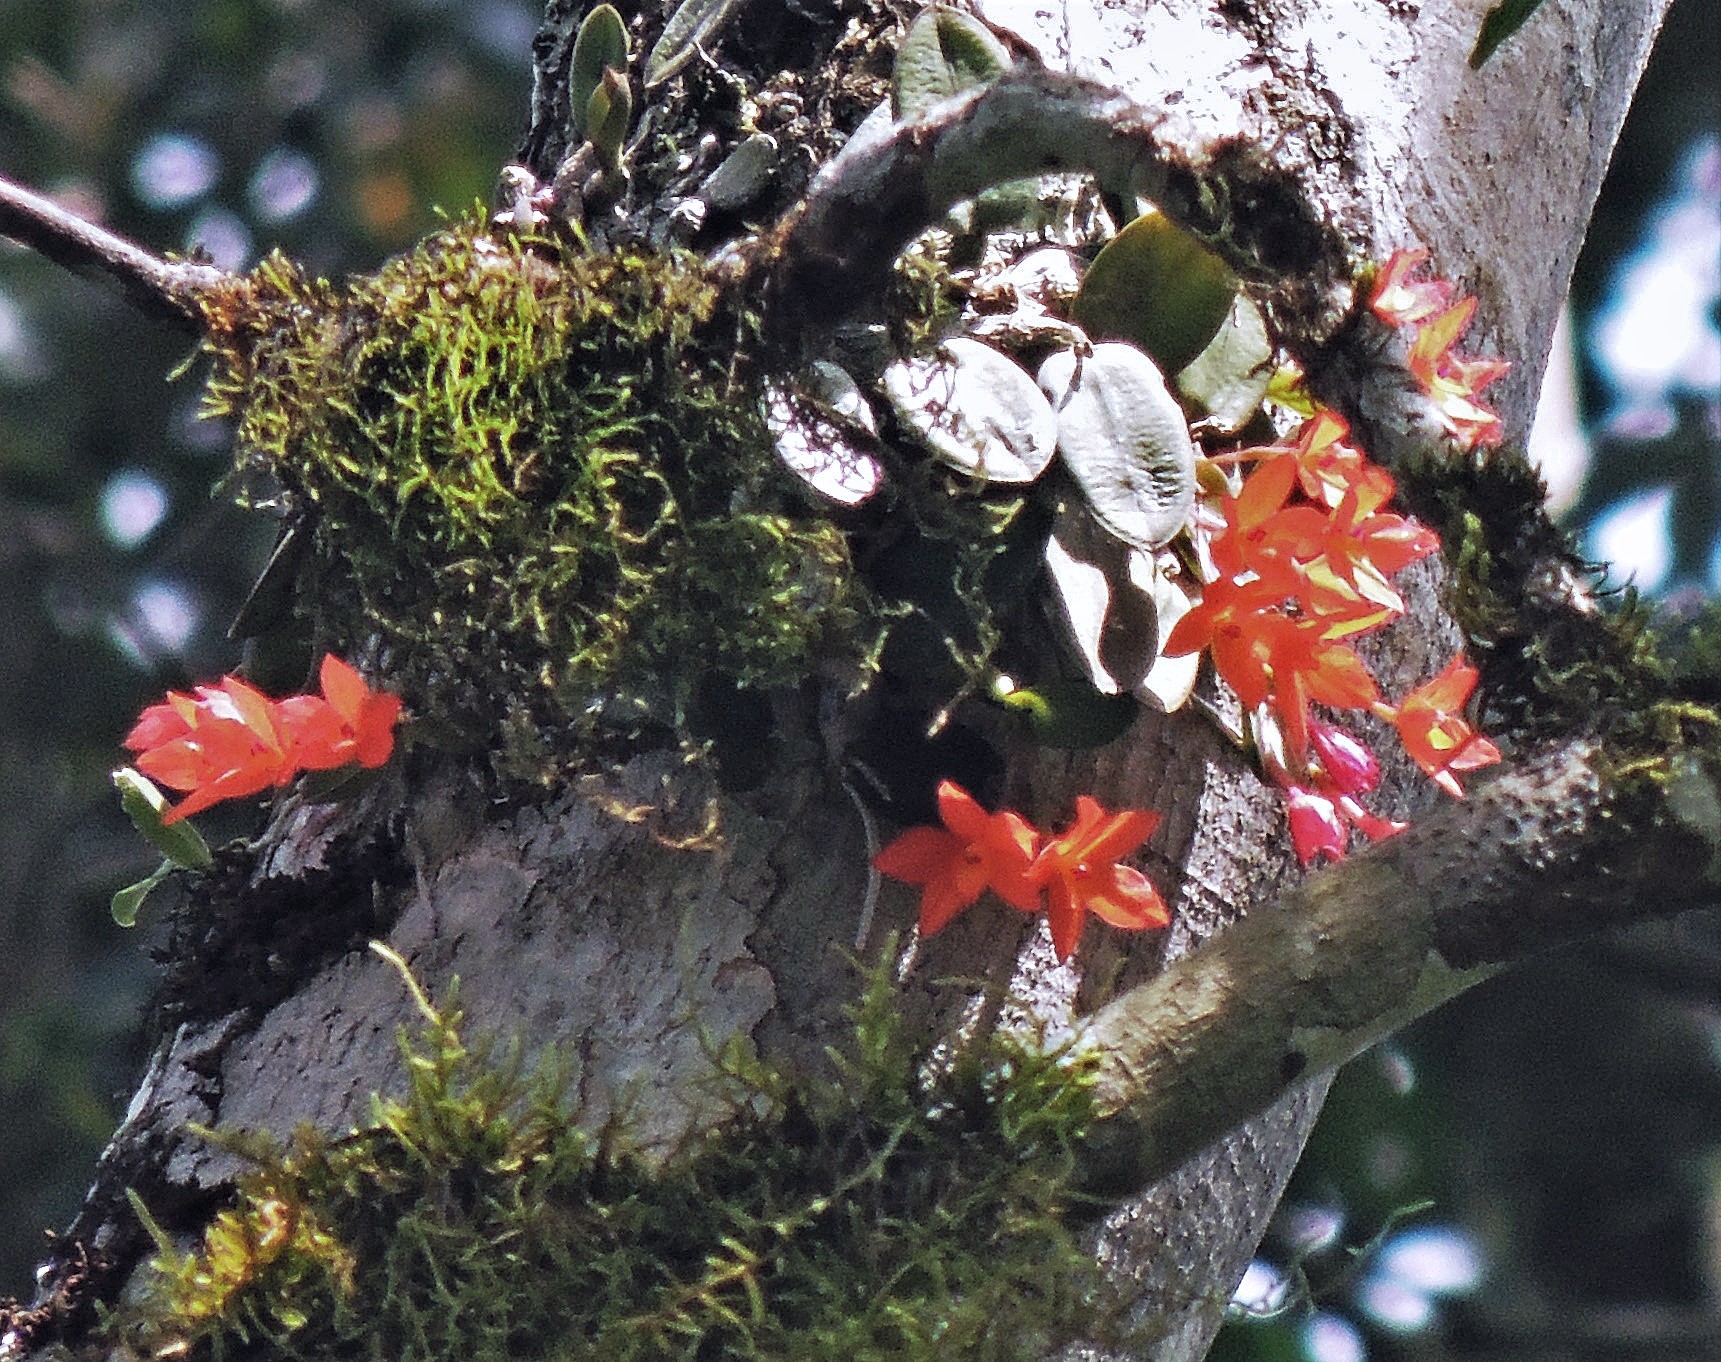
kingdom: Plantae
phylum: Tracheophyta
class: Liliopsida
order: Asparagales
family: Orchidaceae
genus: Cattleya
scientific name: Cattleya cernua
